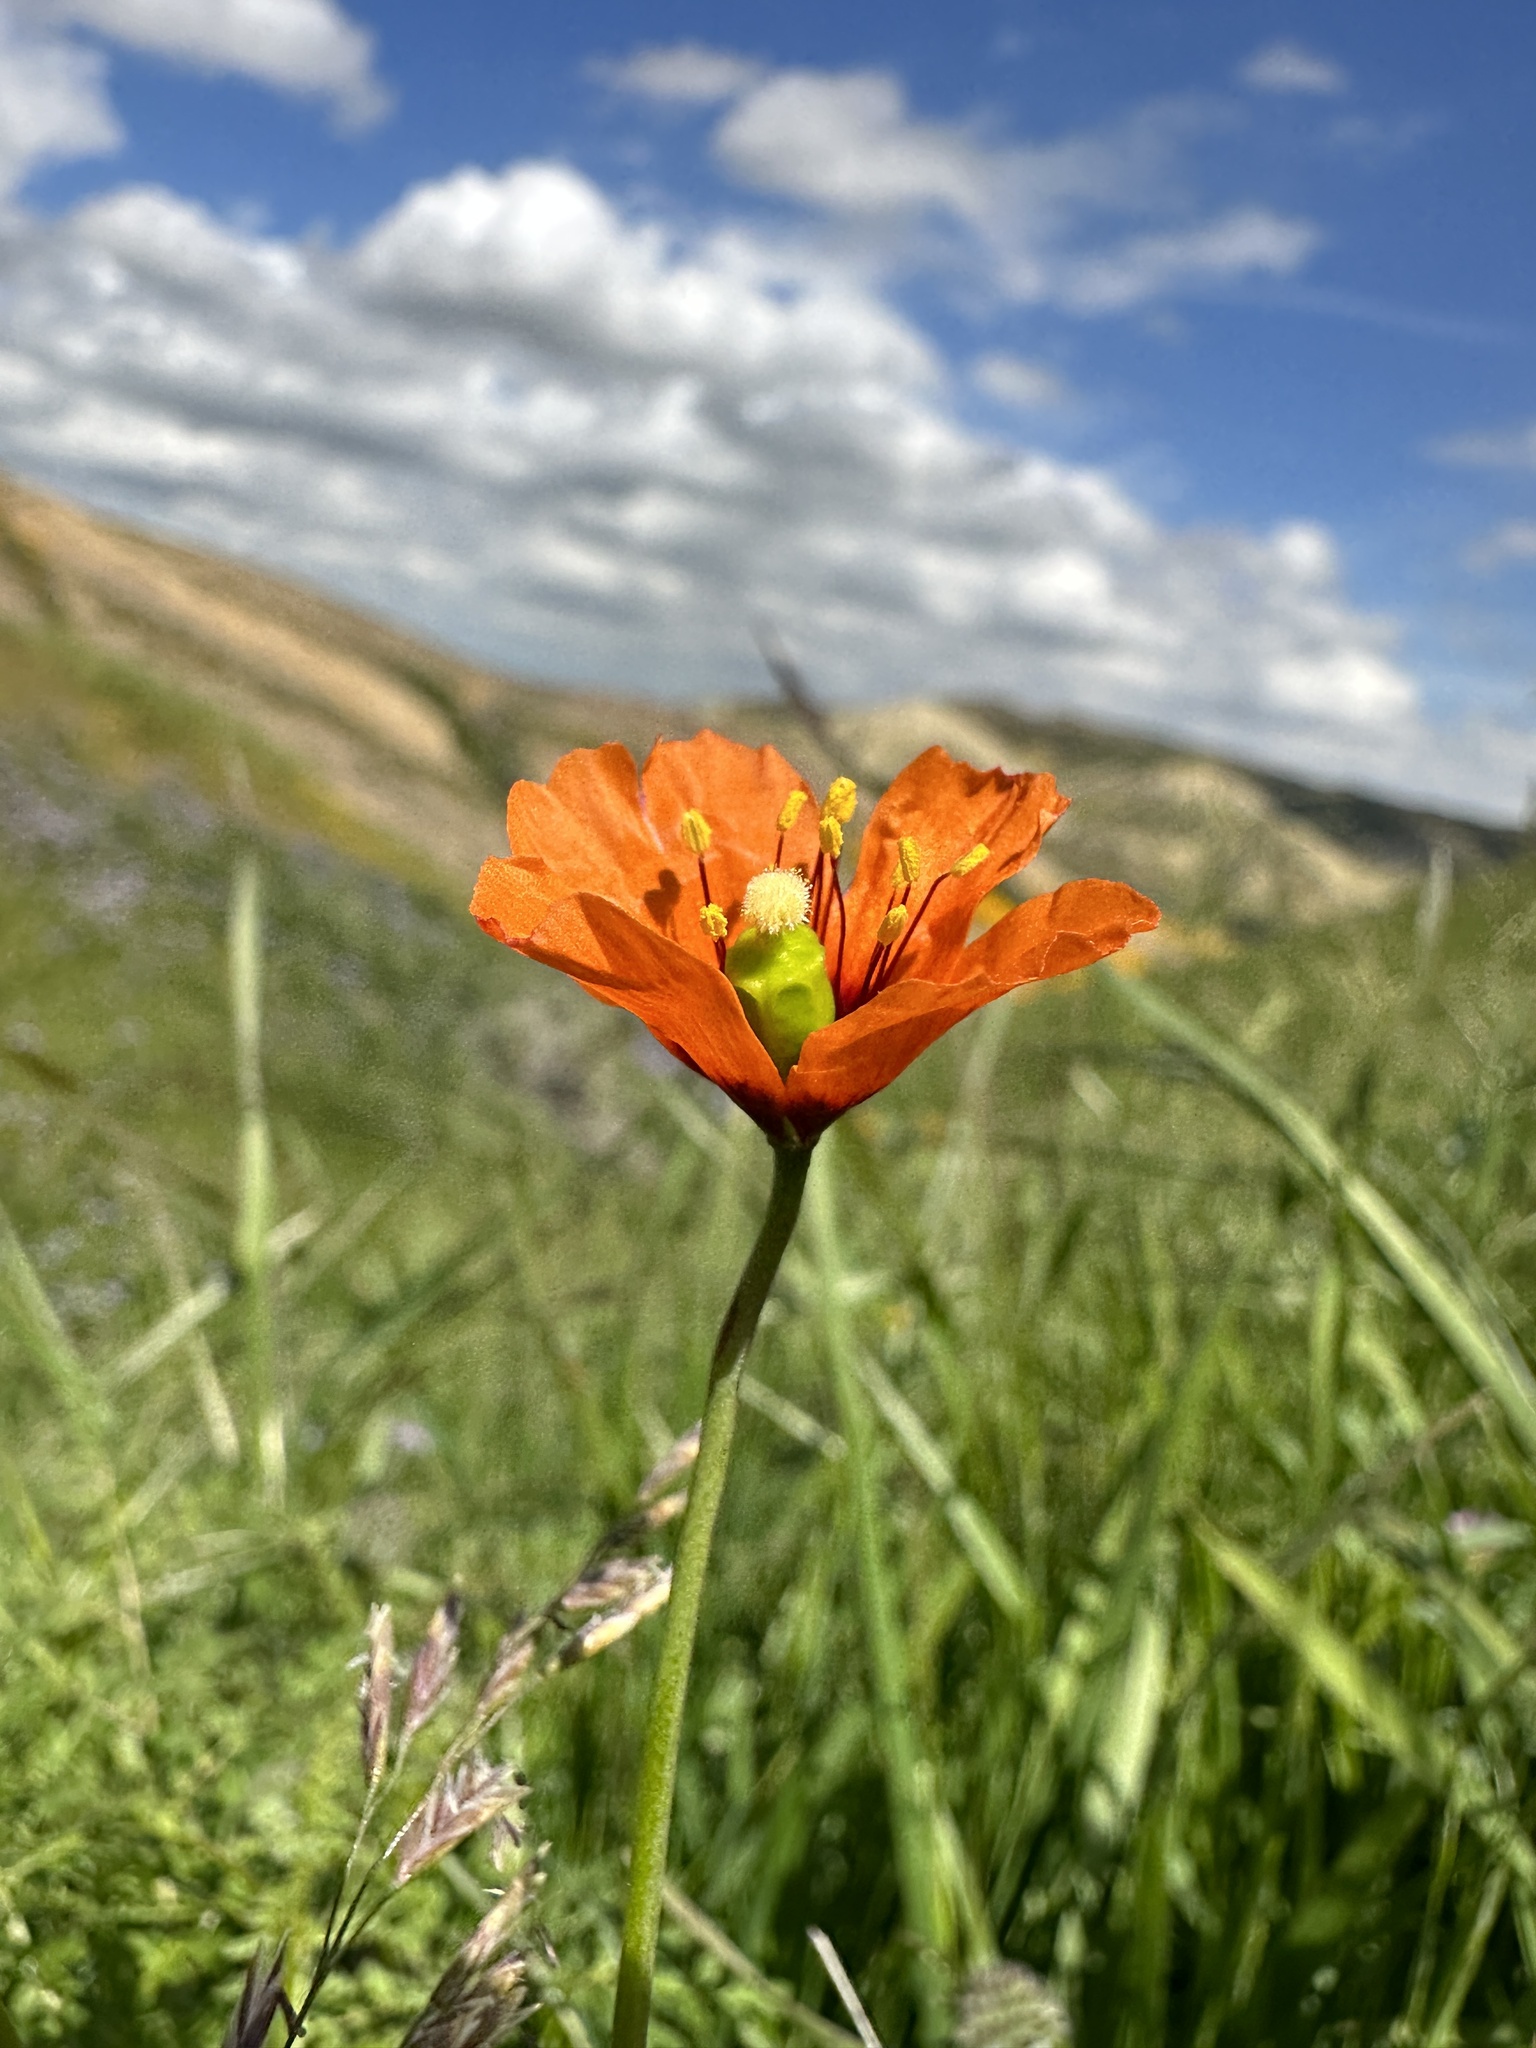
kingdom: Plantae
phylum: Tracheophyta
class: Magnoliopsida
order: Ranunculales
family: Papaveraceae
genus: Stylomecon
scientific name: Stylomecon heterophylla
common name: Flaming-poppy
